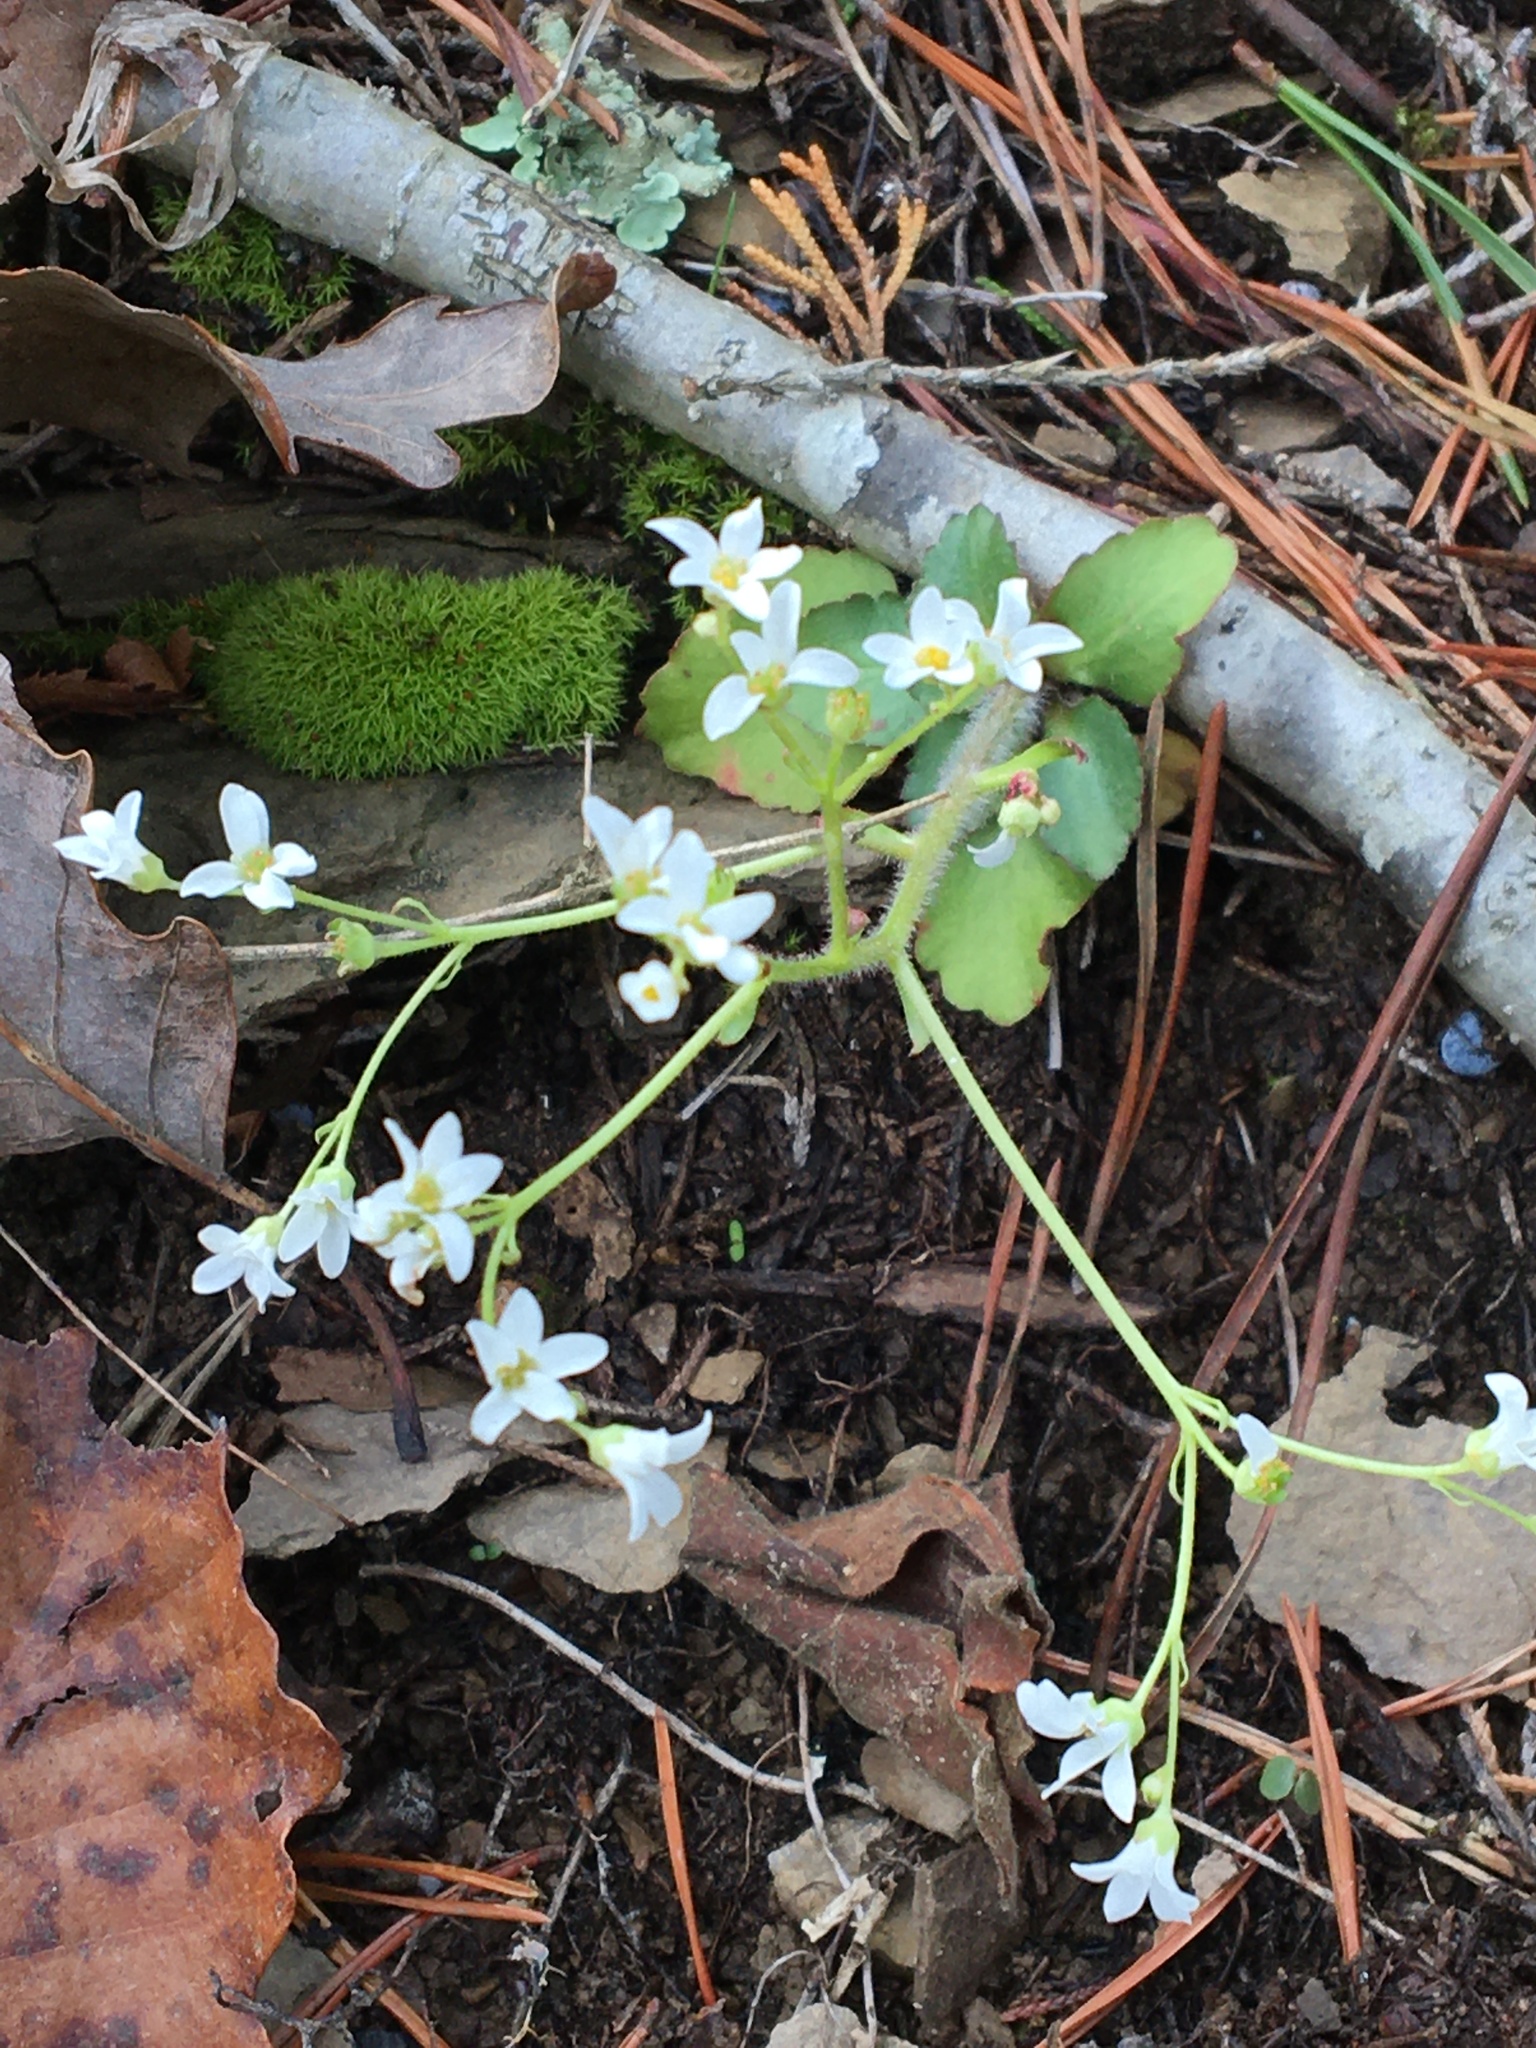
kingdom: Plantae
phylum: Tracheophyta
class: Magnoliopsida
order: Saxifragales
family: Saxifragaceae
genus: Micranthes
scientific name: Micranthes virginiensis
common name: Early saxifrage
